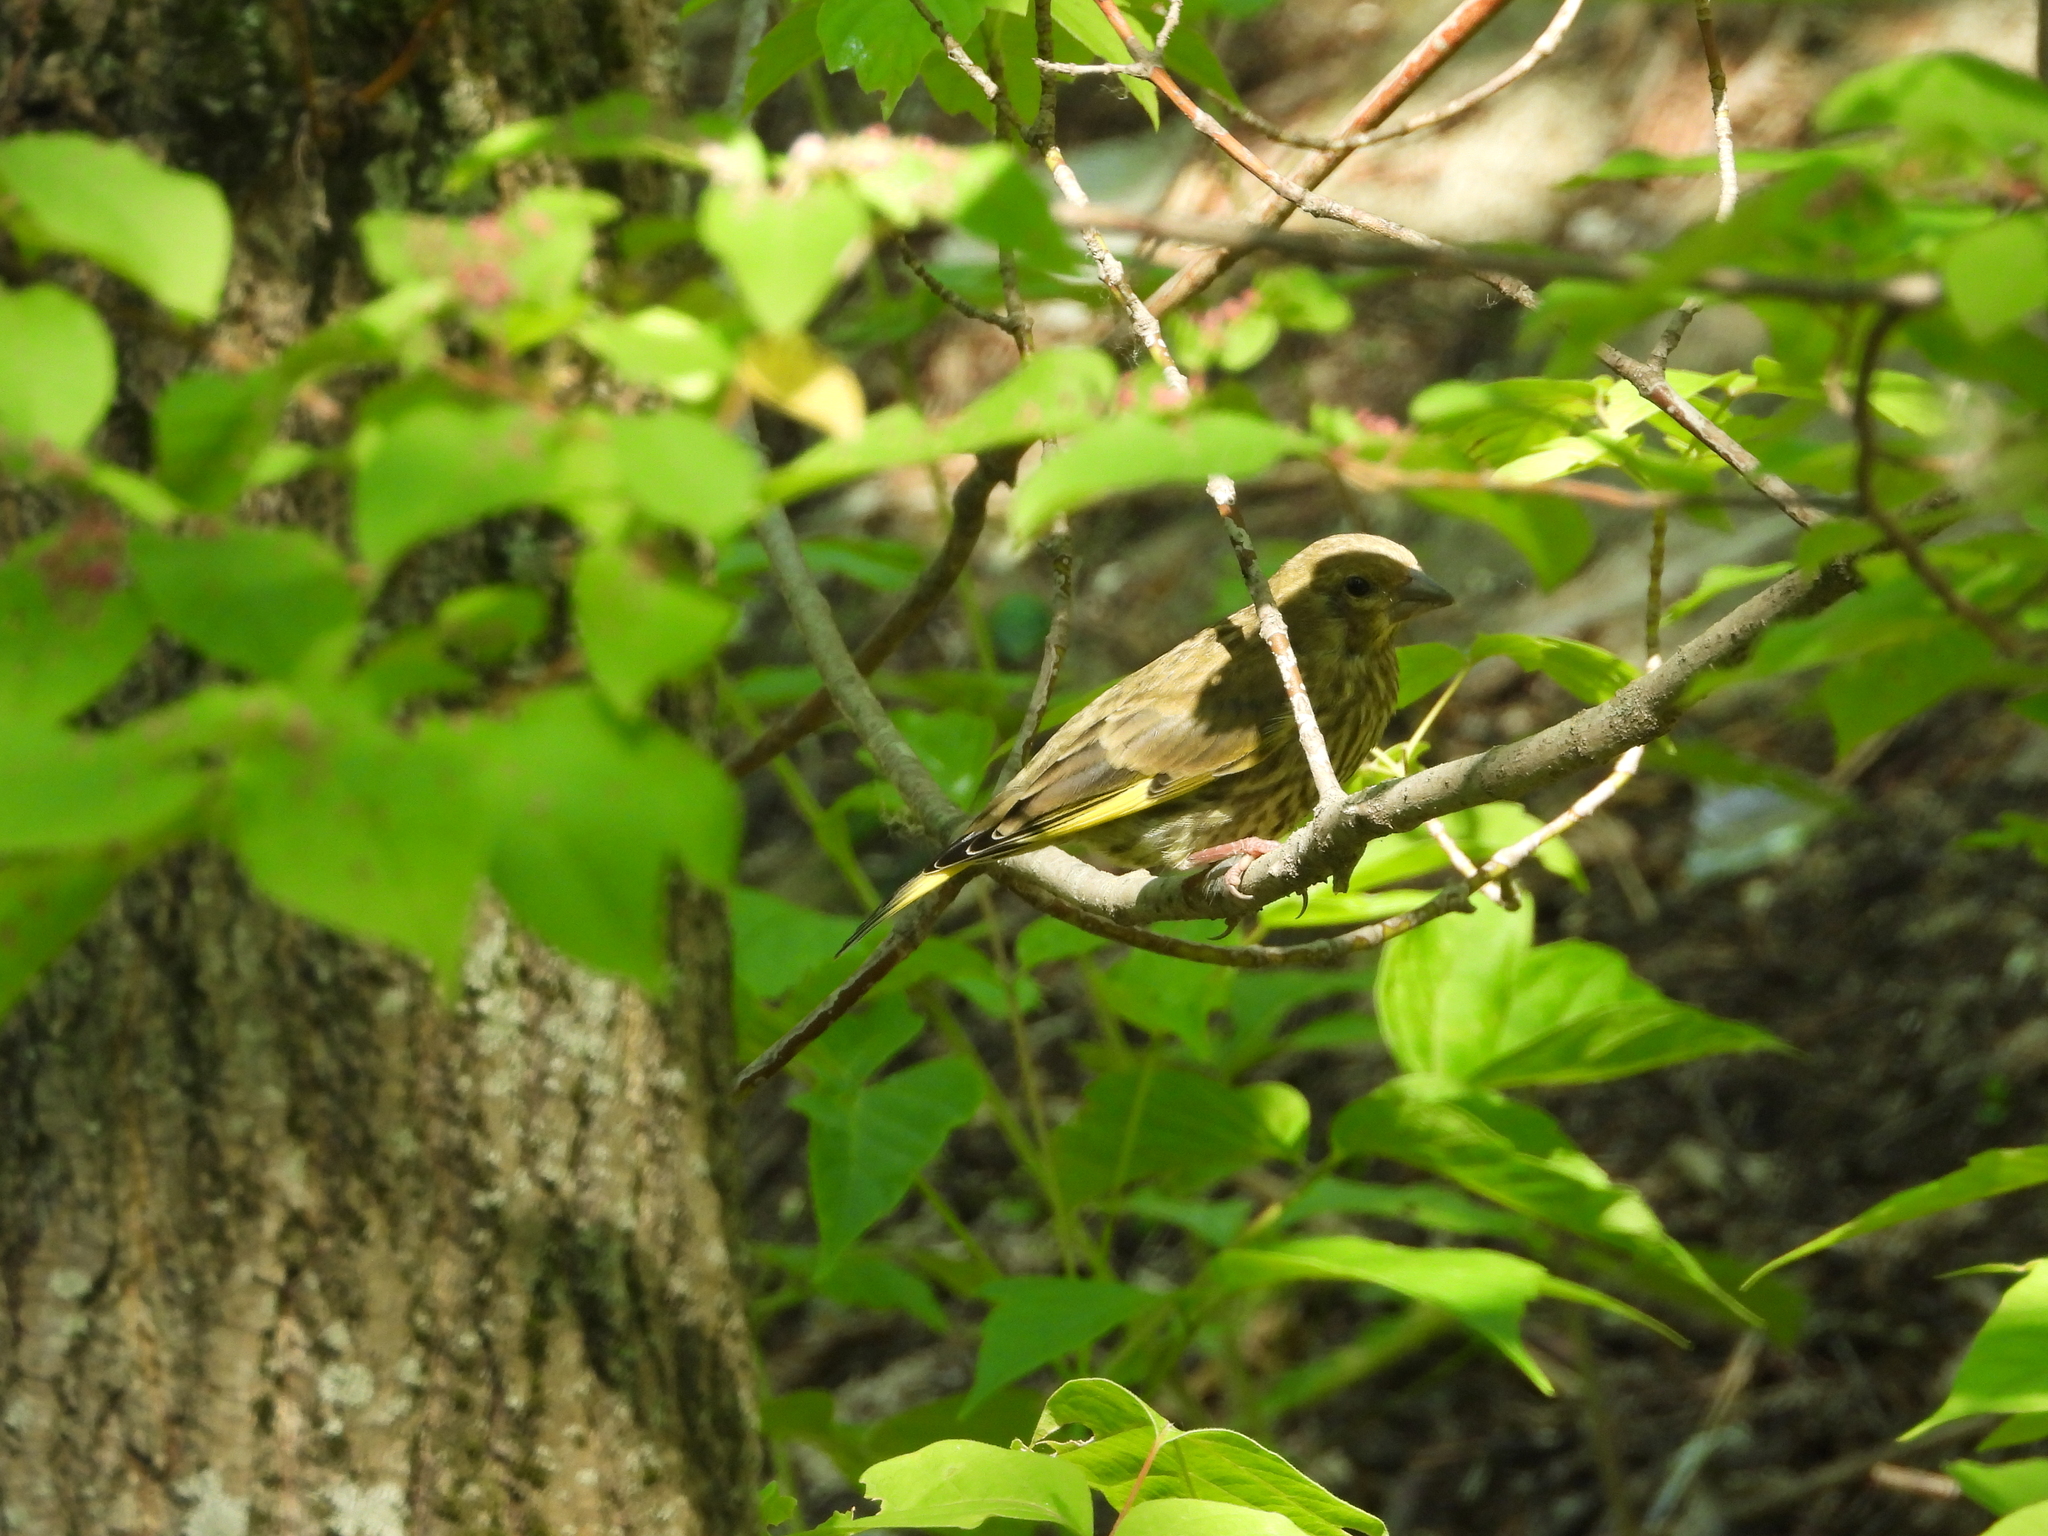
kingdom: Plantae
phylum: Tracheophyta
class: Liliopsida
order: Poales
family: Poaceae
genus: Chloris
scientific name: Chloris chloris
